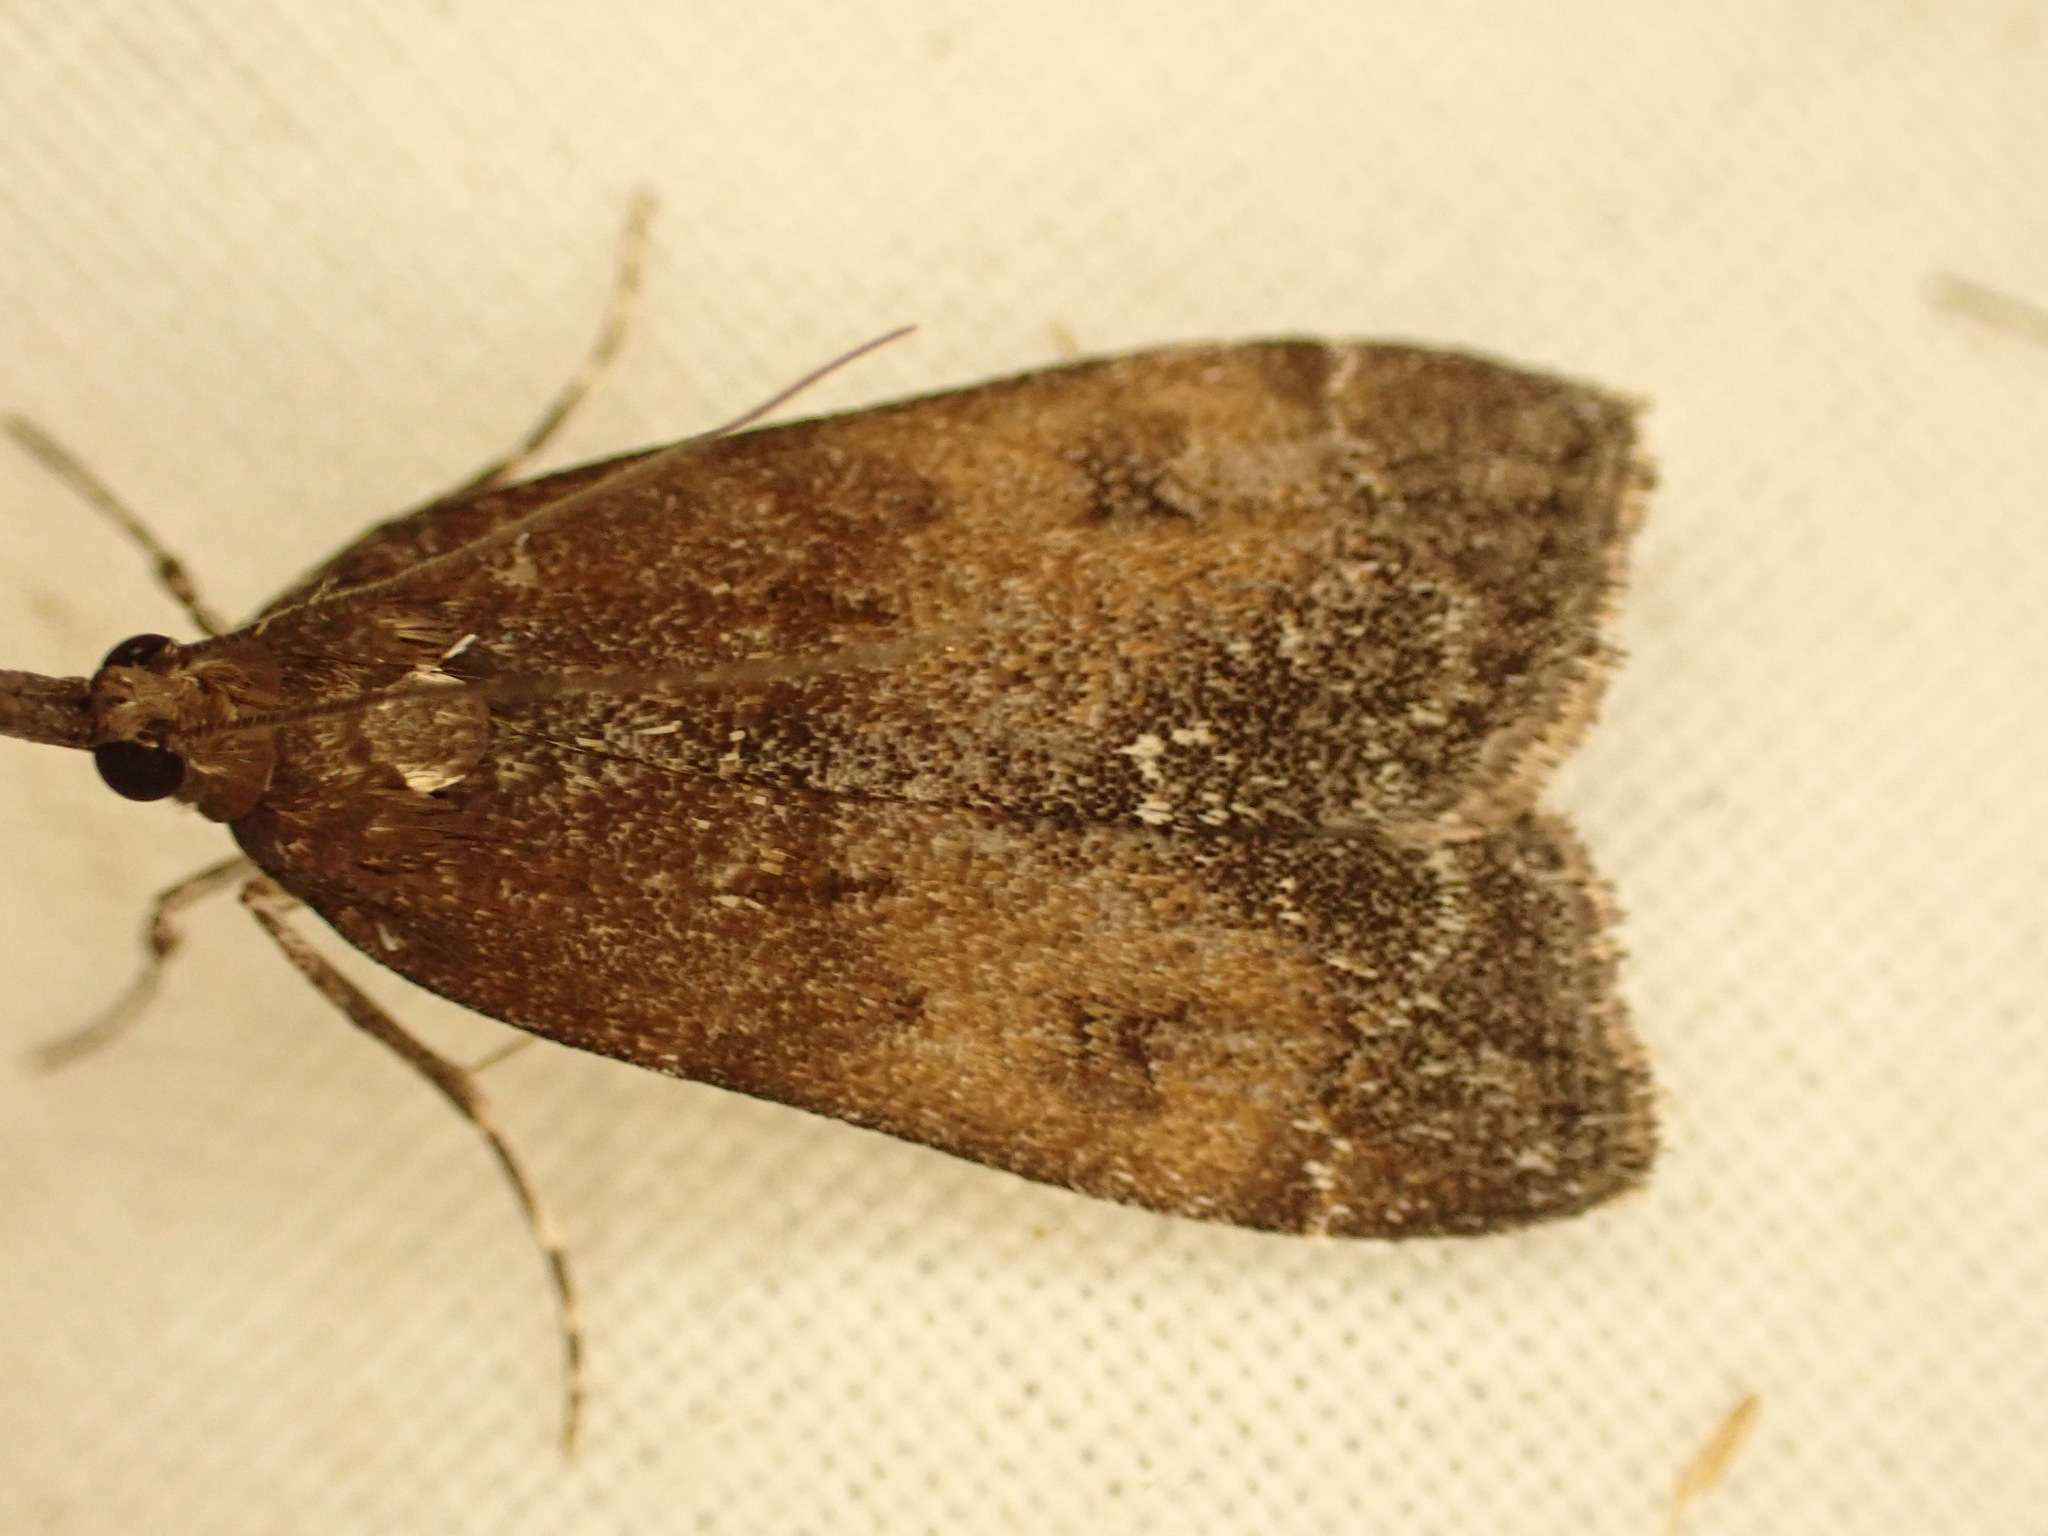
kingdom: Animalia
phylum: Arthropoda
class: Insecta
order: Lepidoptera
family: Crambidae
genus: Eudonia
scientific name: Eudonia asterisca
